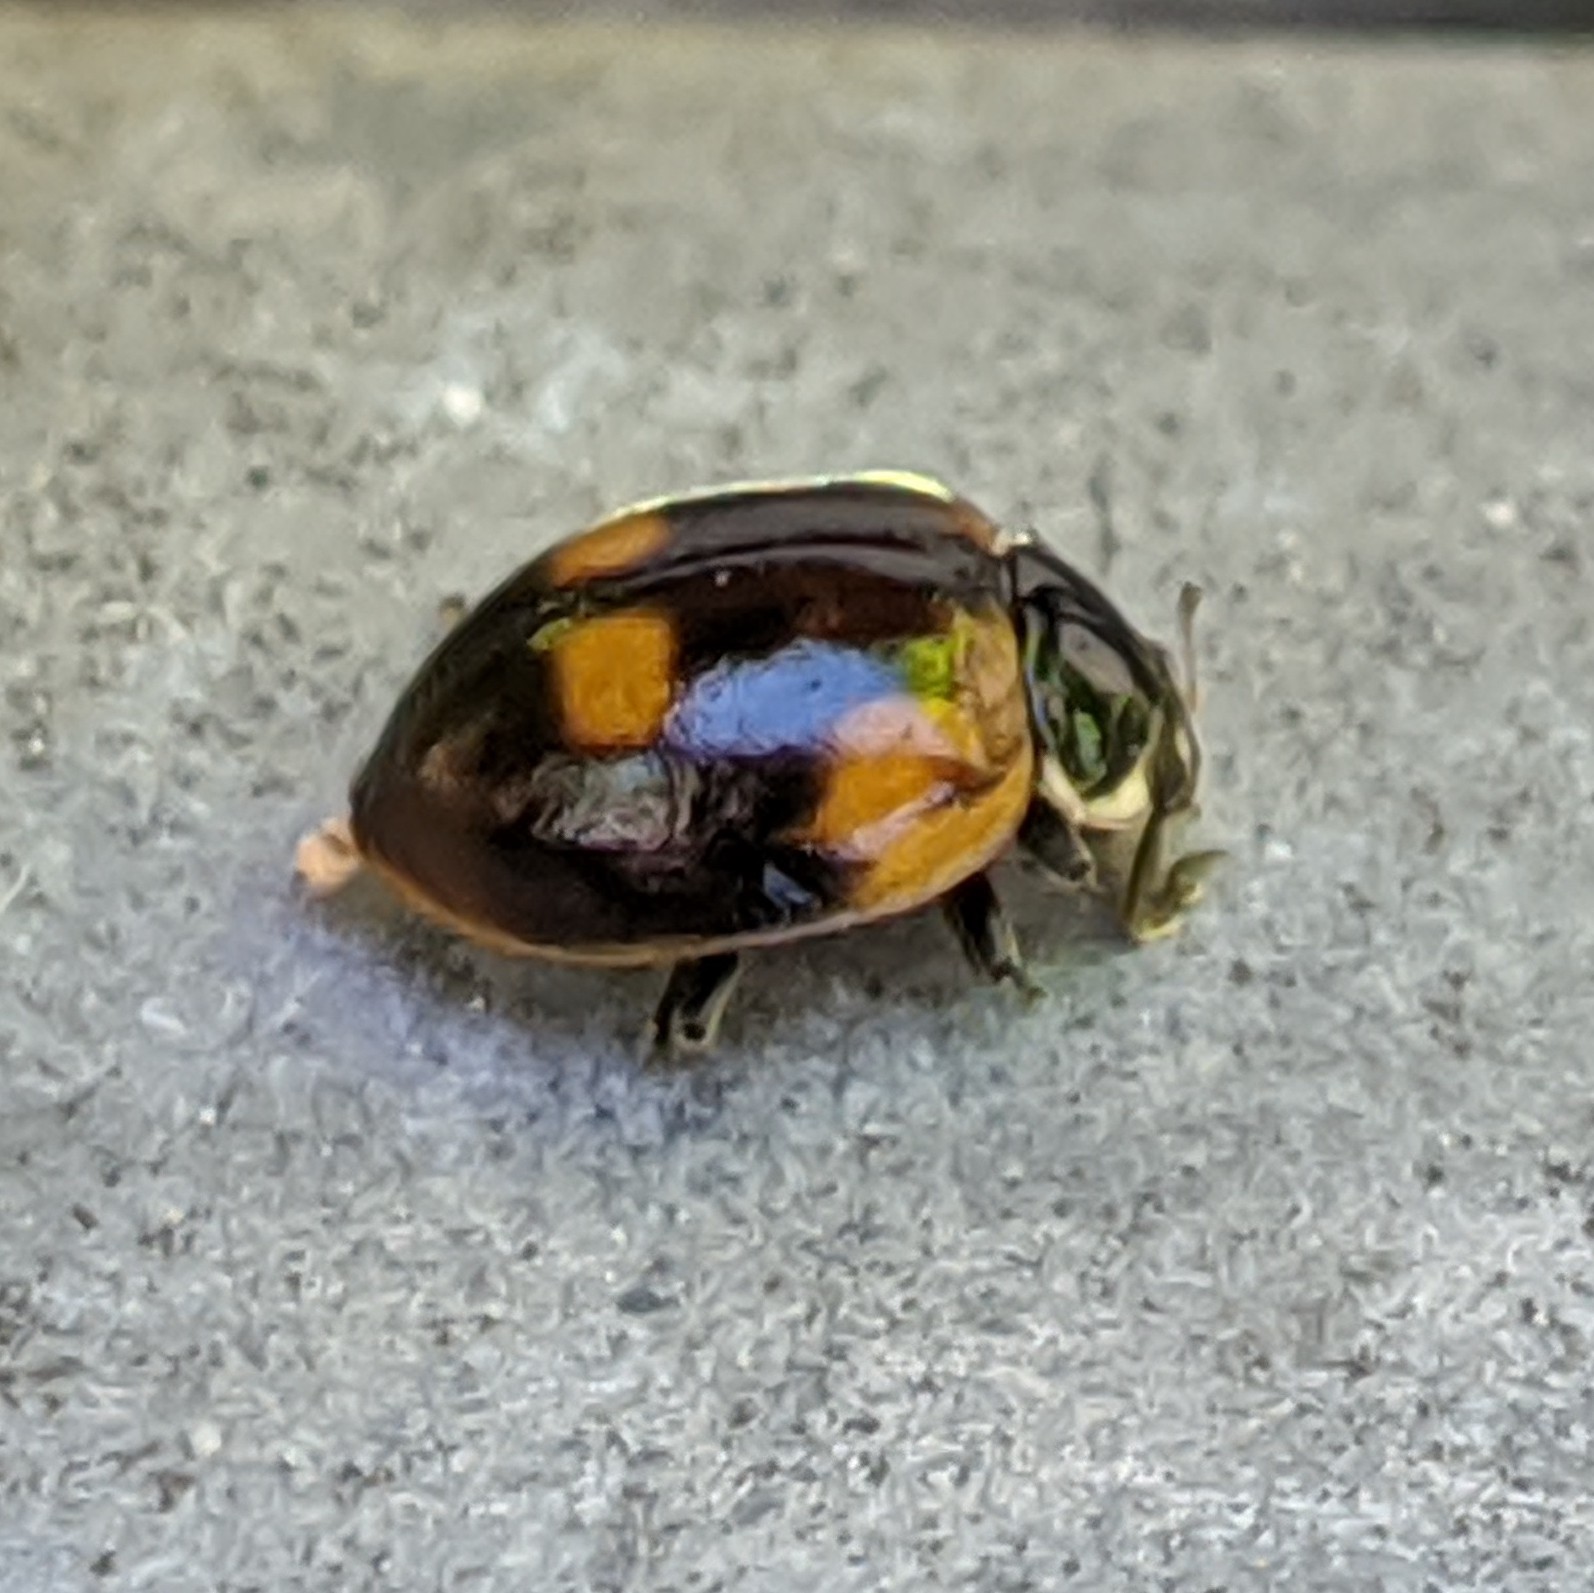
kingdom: Animalia
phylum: Arthropoda
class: Insecta
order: Coleoptera
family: Coccinellidae
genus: Adalia
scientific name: Adalia bipunctata
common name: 2-spot ladybird
